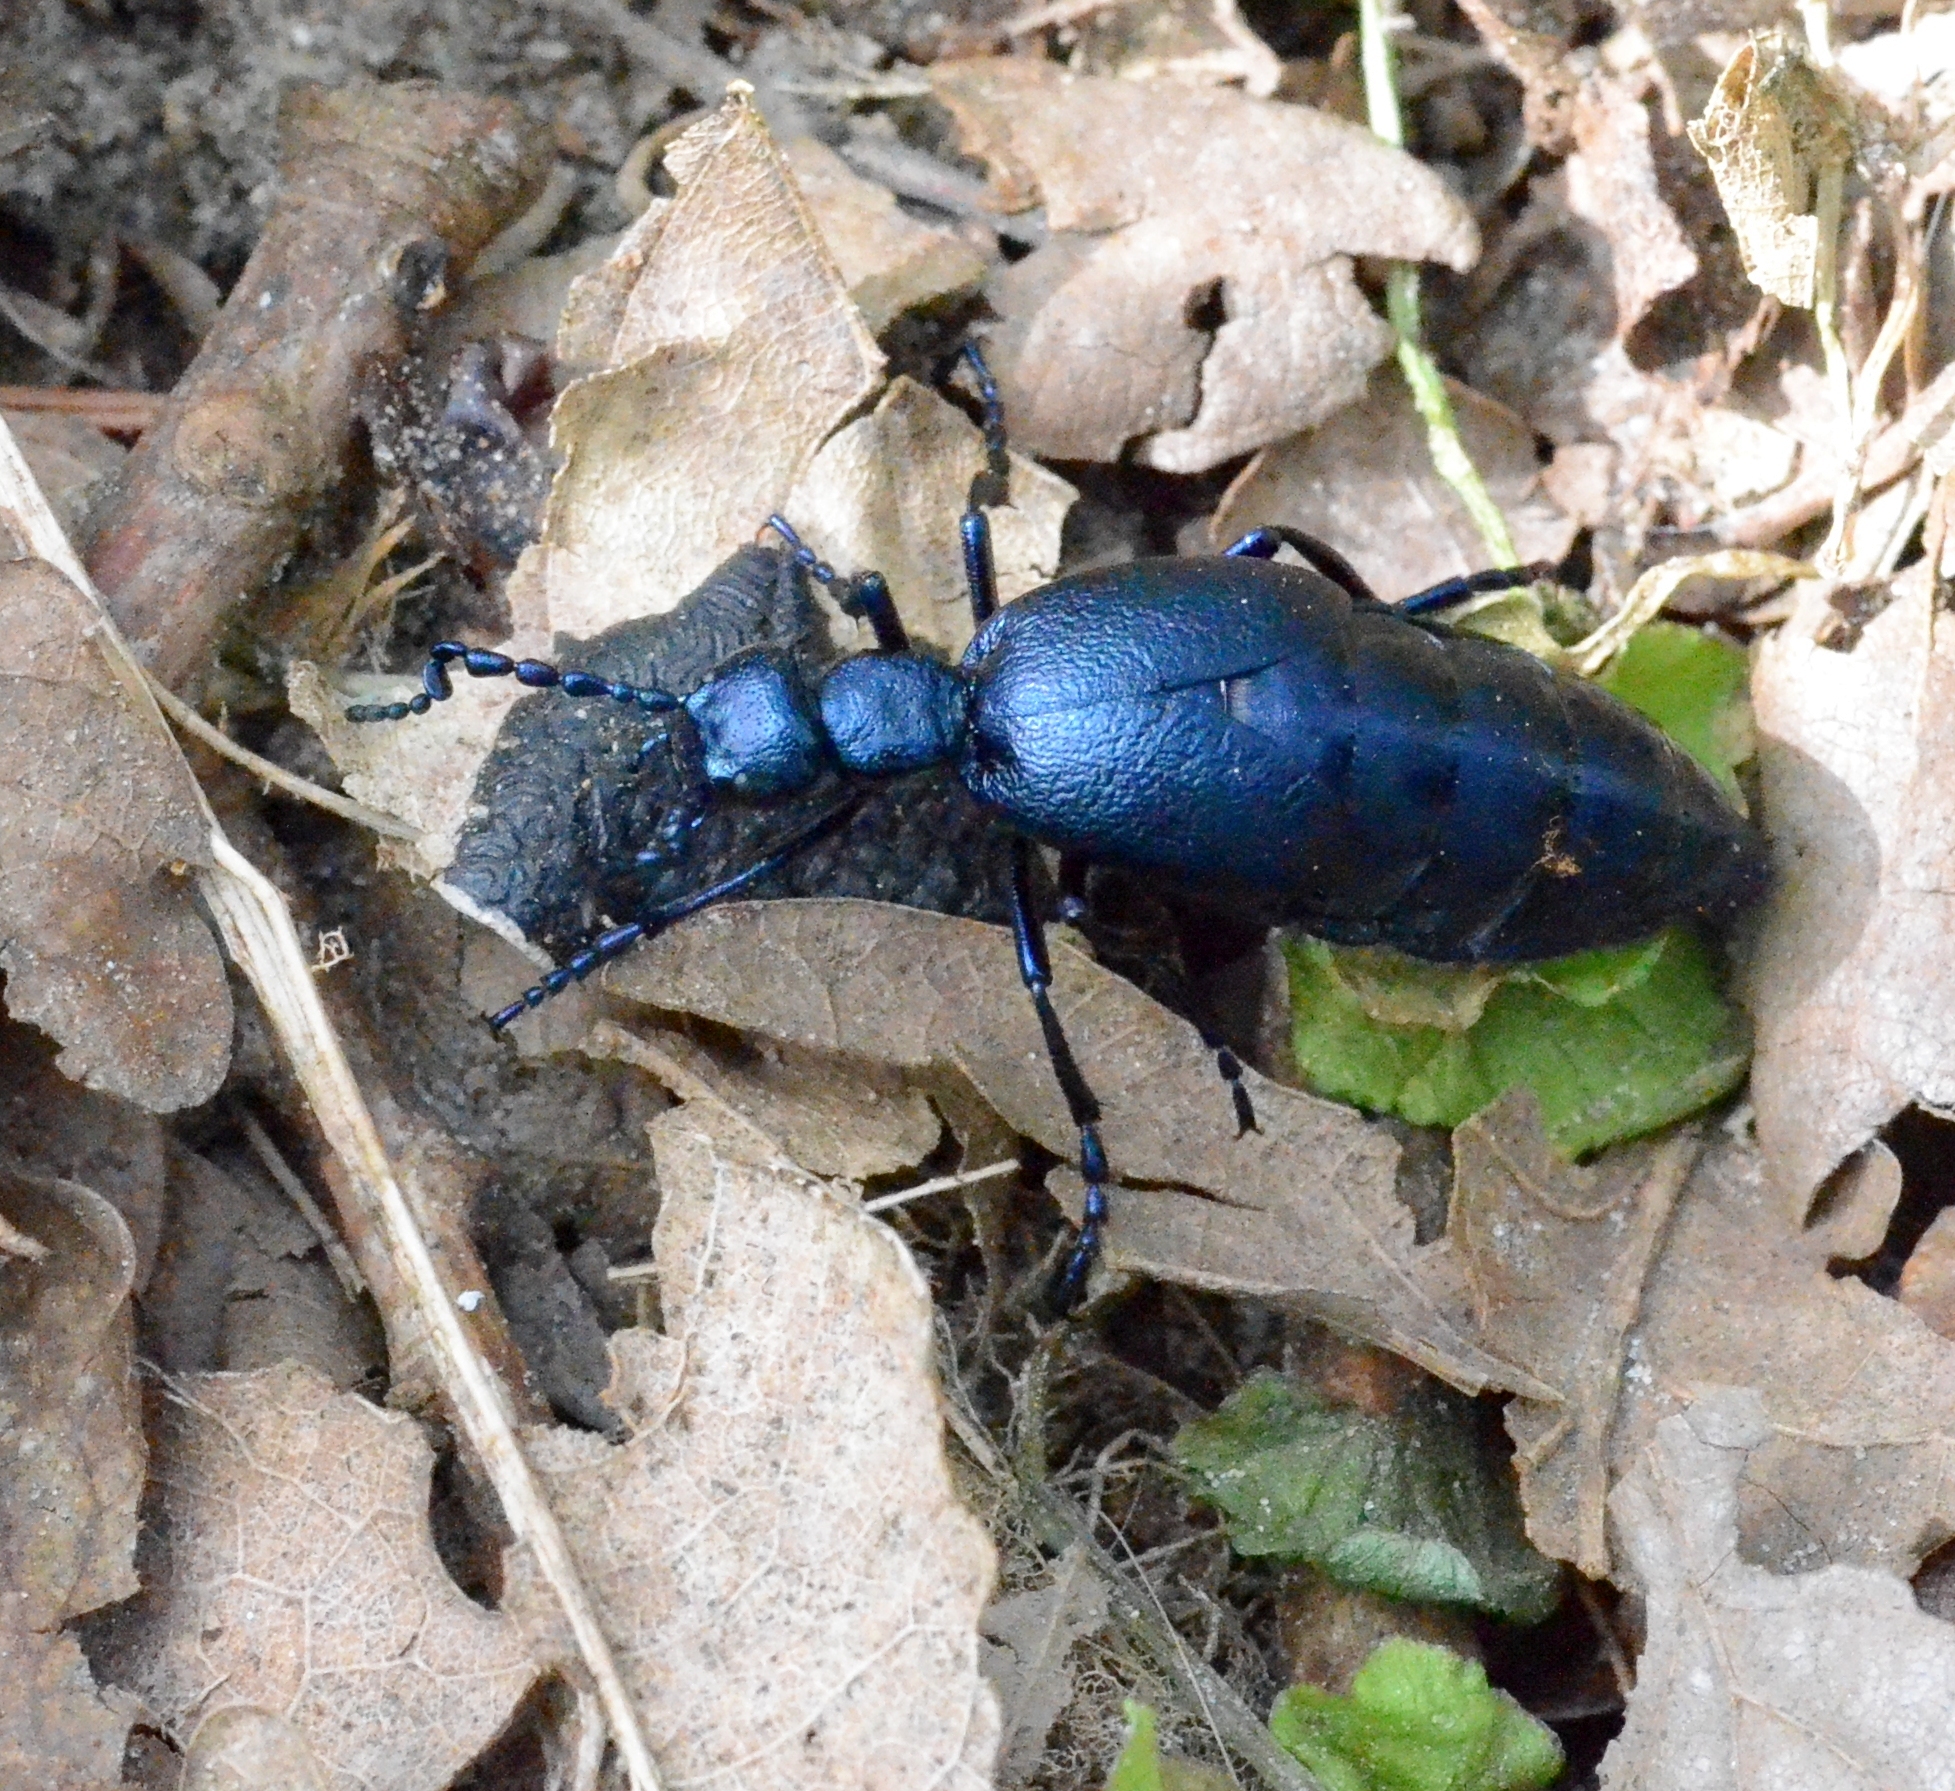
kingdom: Animalia
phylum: Arthropoda
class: Insecta
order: Coleoptera
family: Meloidae
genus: Meloe
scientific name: Meloe violaceus
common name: Violet oil-beetle
